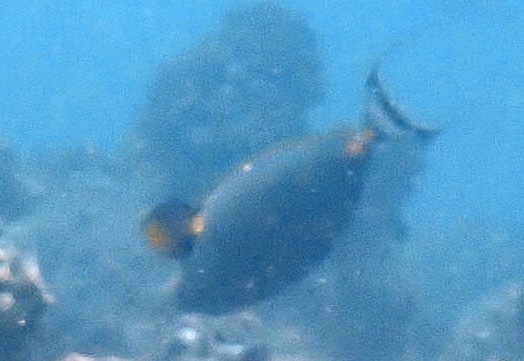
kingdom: Animalia
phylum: Chordata
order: Perciformes
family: Acanthuridae
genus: Naso
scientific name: Naso elegans
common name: Orangespine unicornfish
